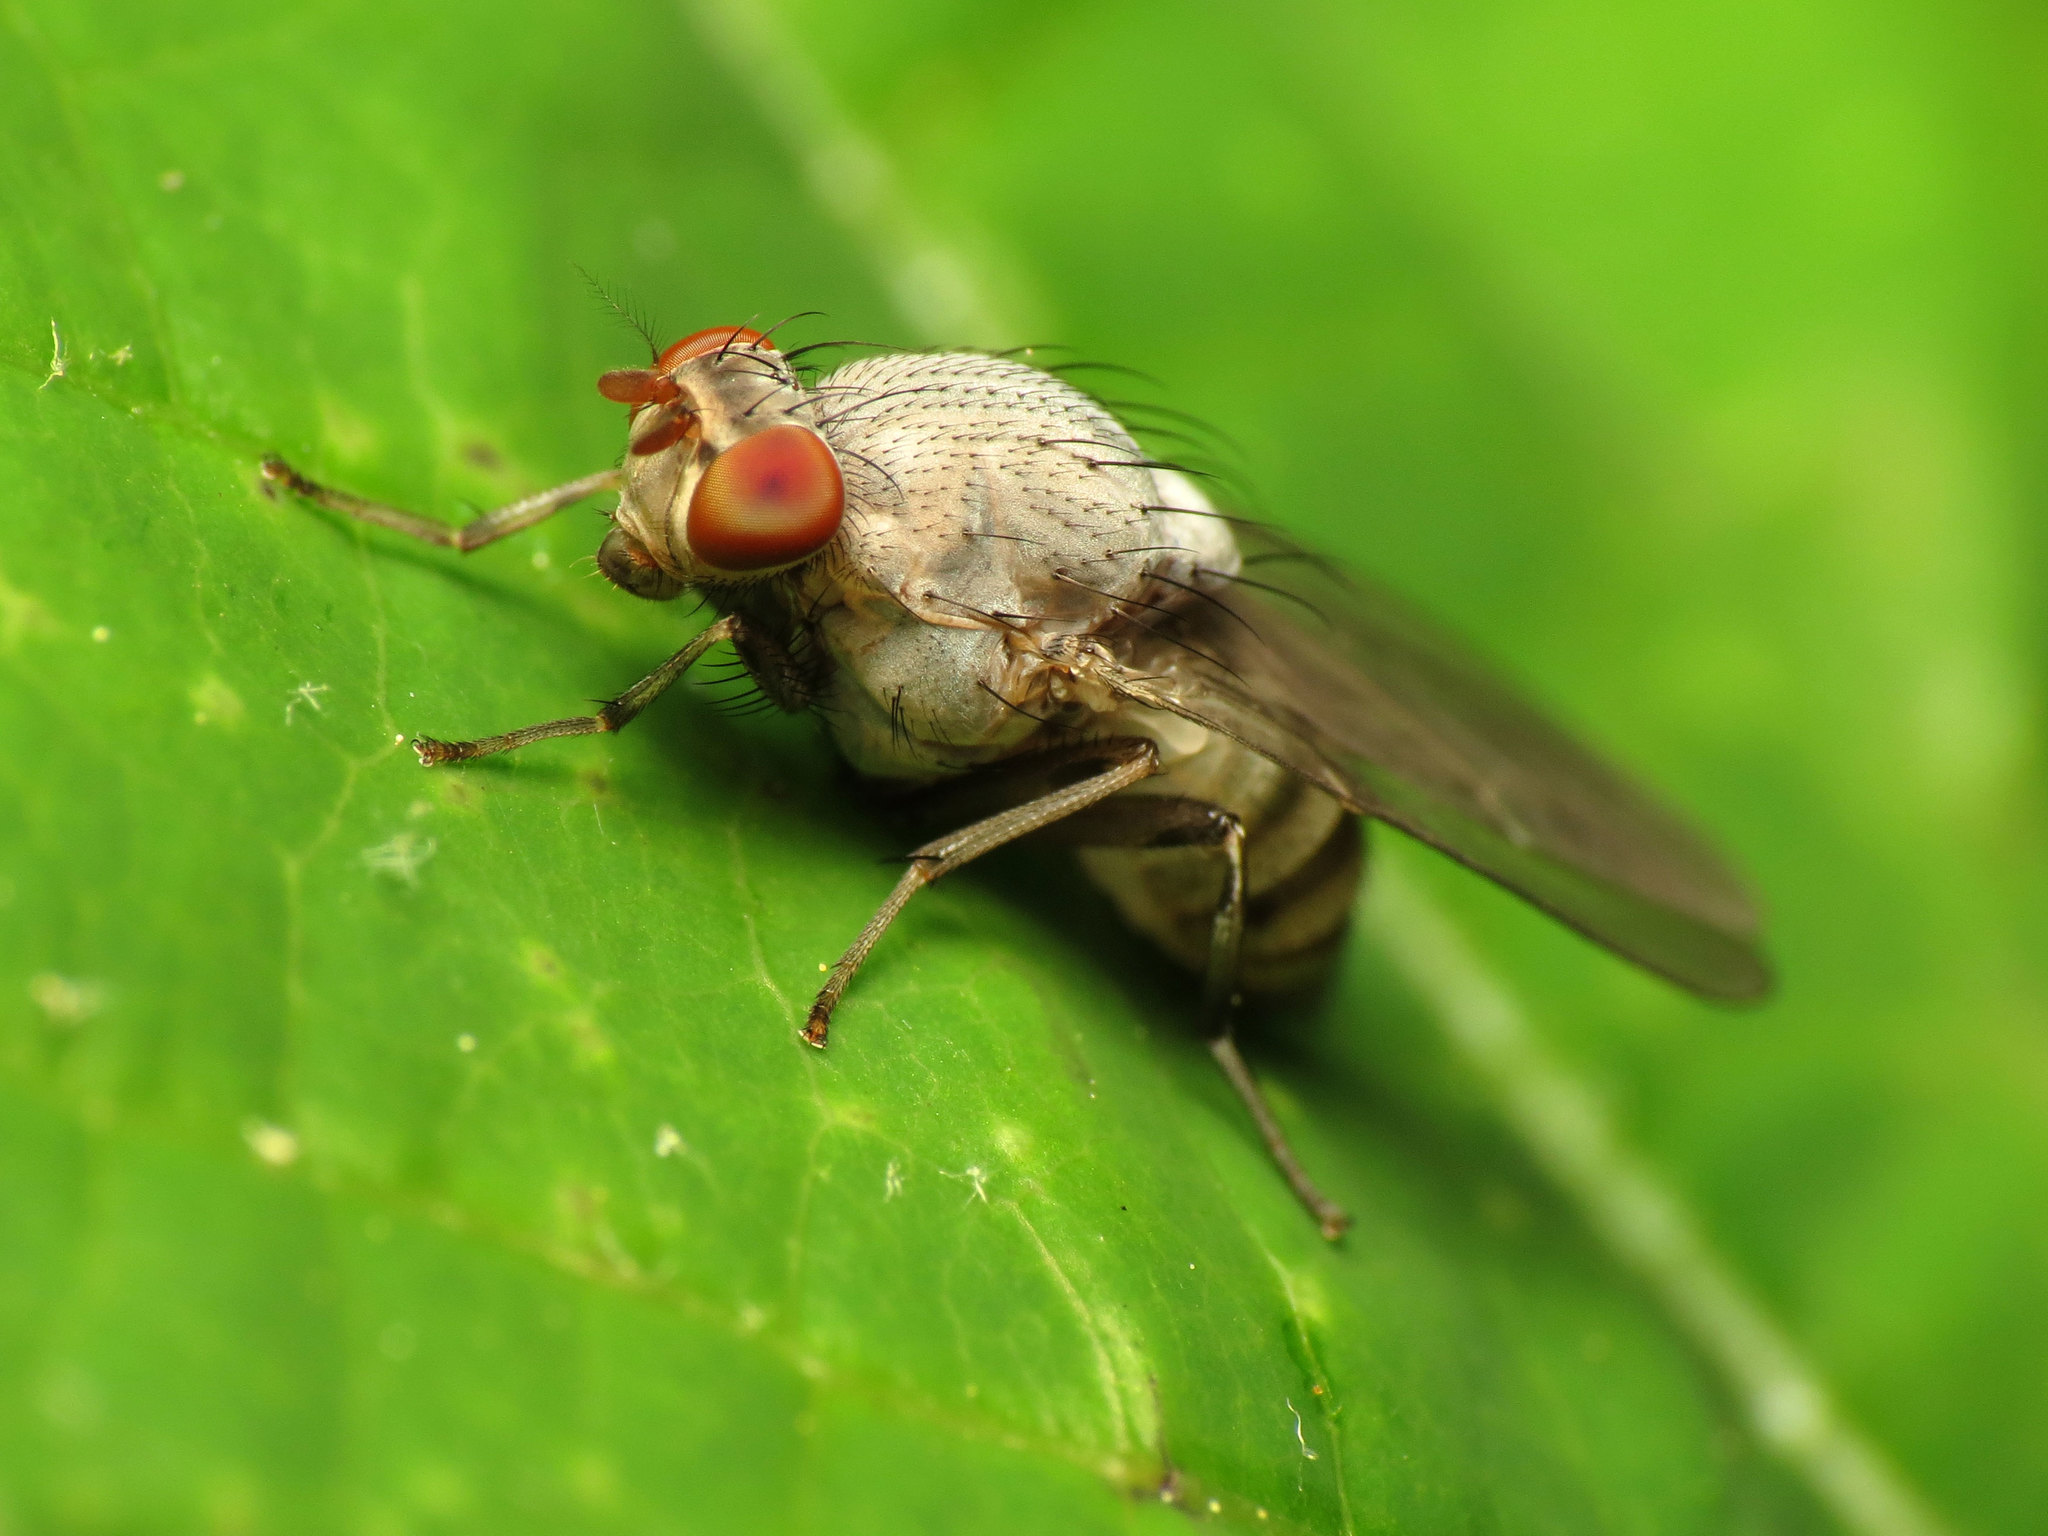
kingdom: Animalia
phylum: Arthropoda
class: Insecta
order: Diptera
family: Lauxaniidae
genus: Minettia
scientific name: Minettia magna
